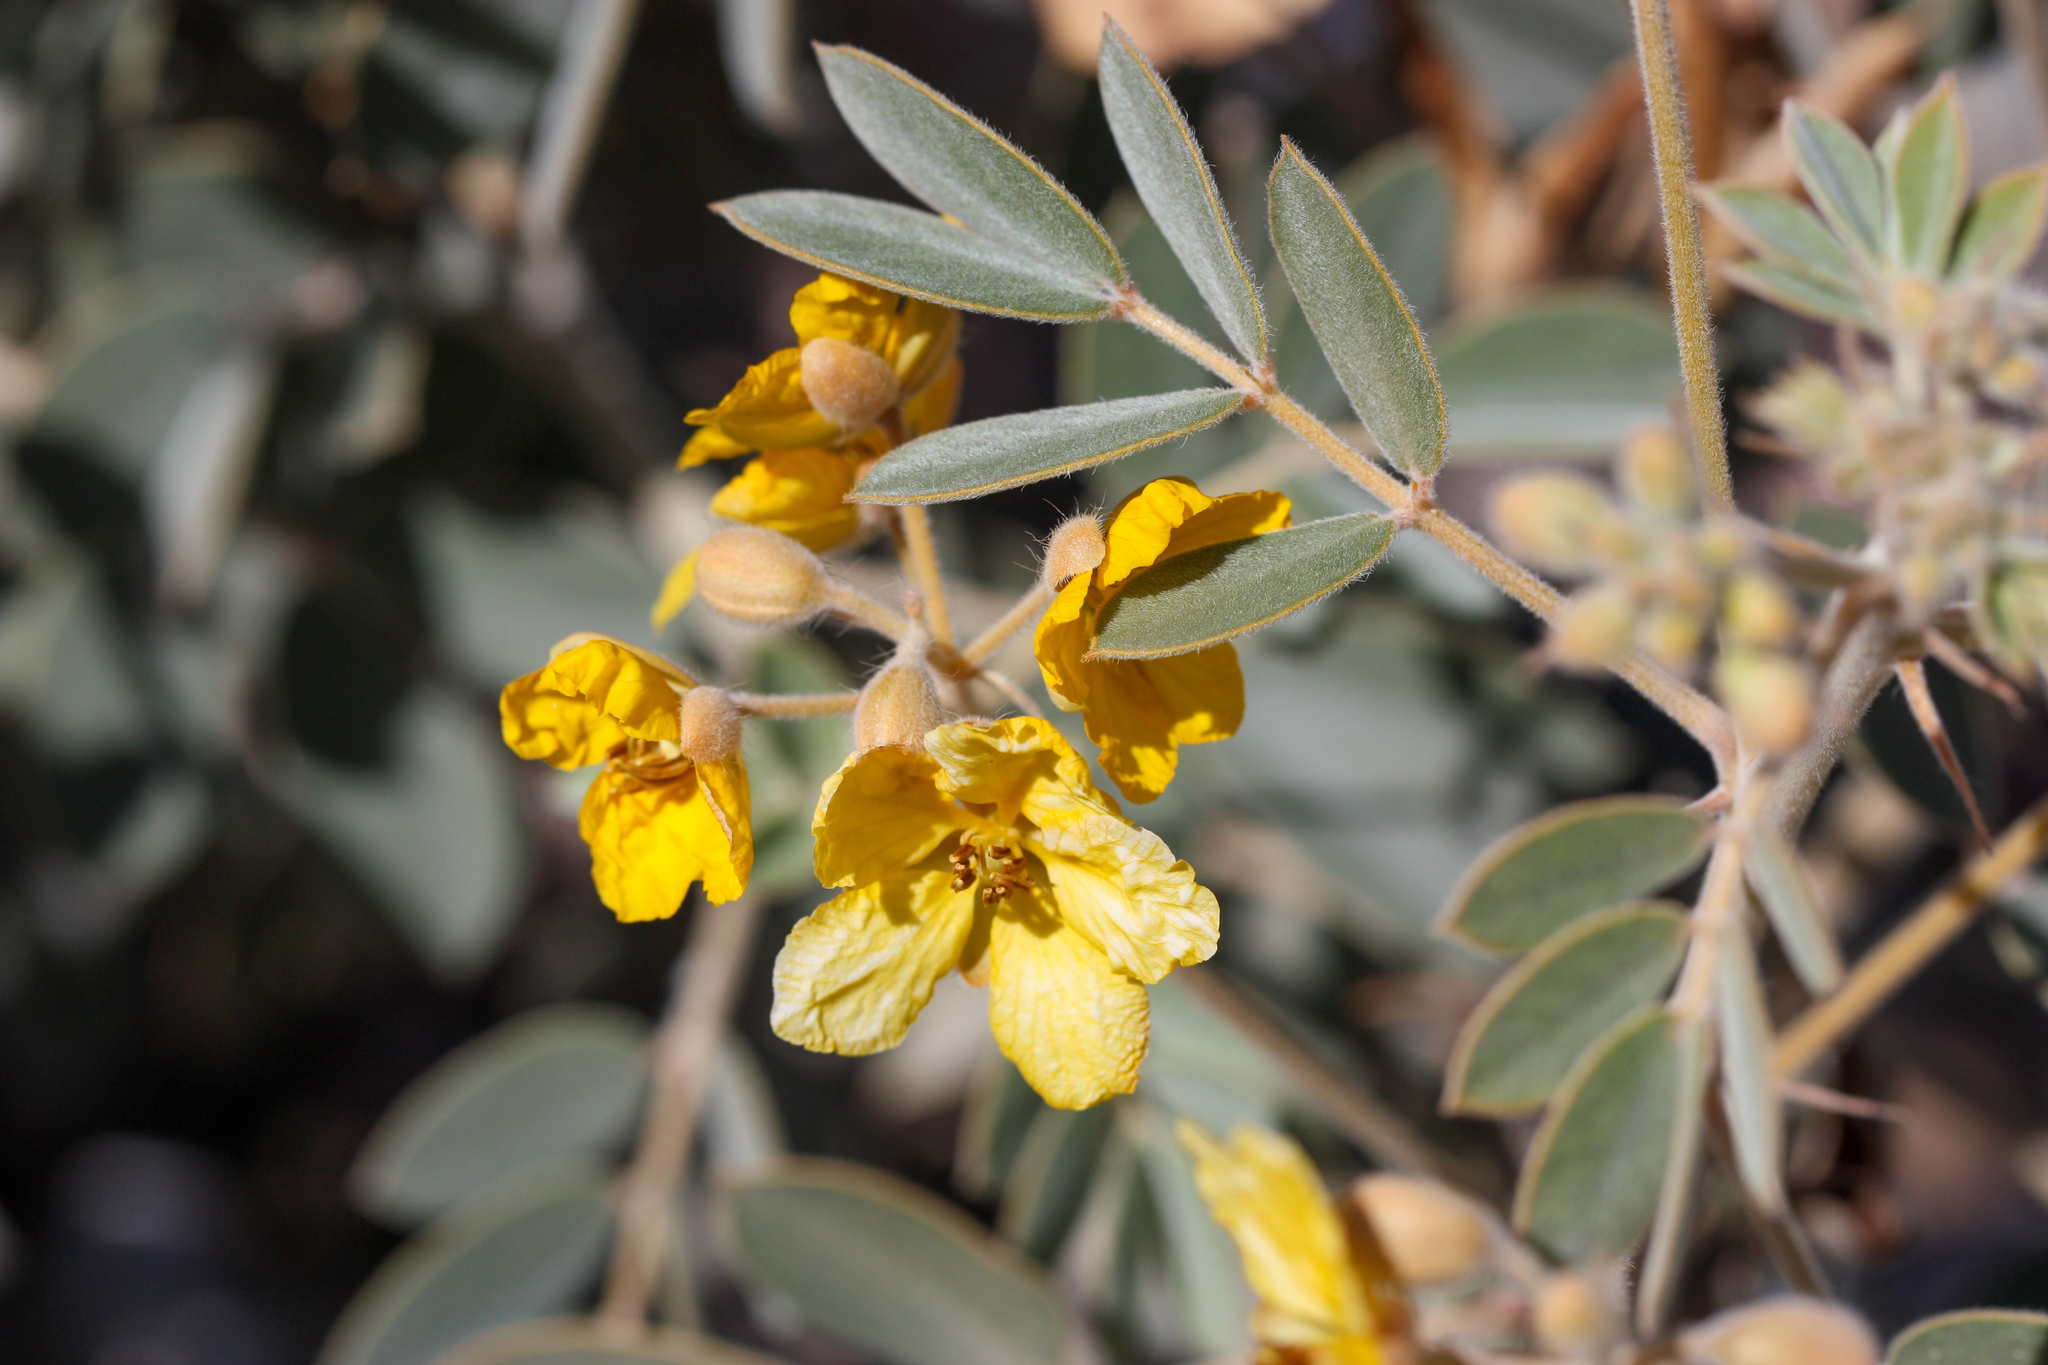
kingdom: Plantae
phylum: Tracheophyta
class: Magnoliopsida
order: Fabales
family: Fabaceae
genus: Senna
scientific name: Senna covesii
